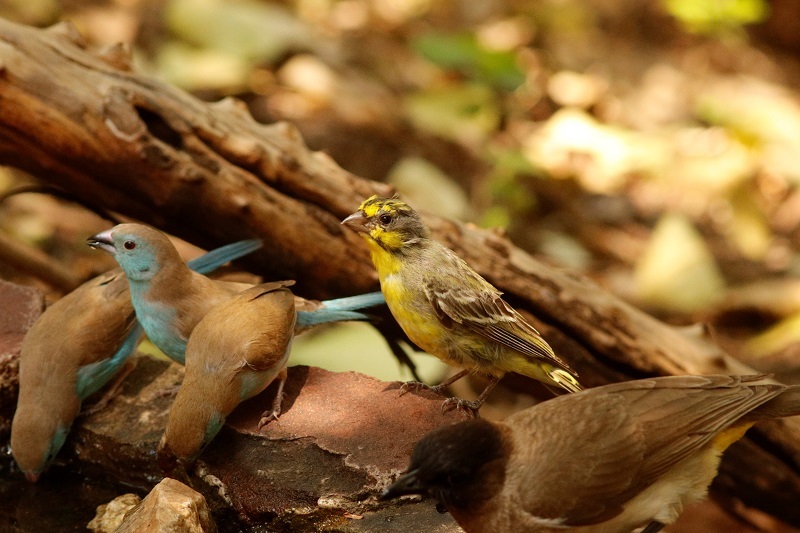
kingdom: Animalia
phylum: Chordata
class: Aves
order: Passeriformes
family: Fringillidae
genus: Crithagra
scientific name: Crithagra mozambica
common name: Yellow-fronted canary
